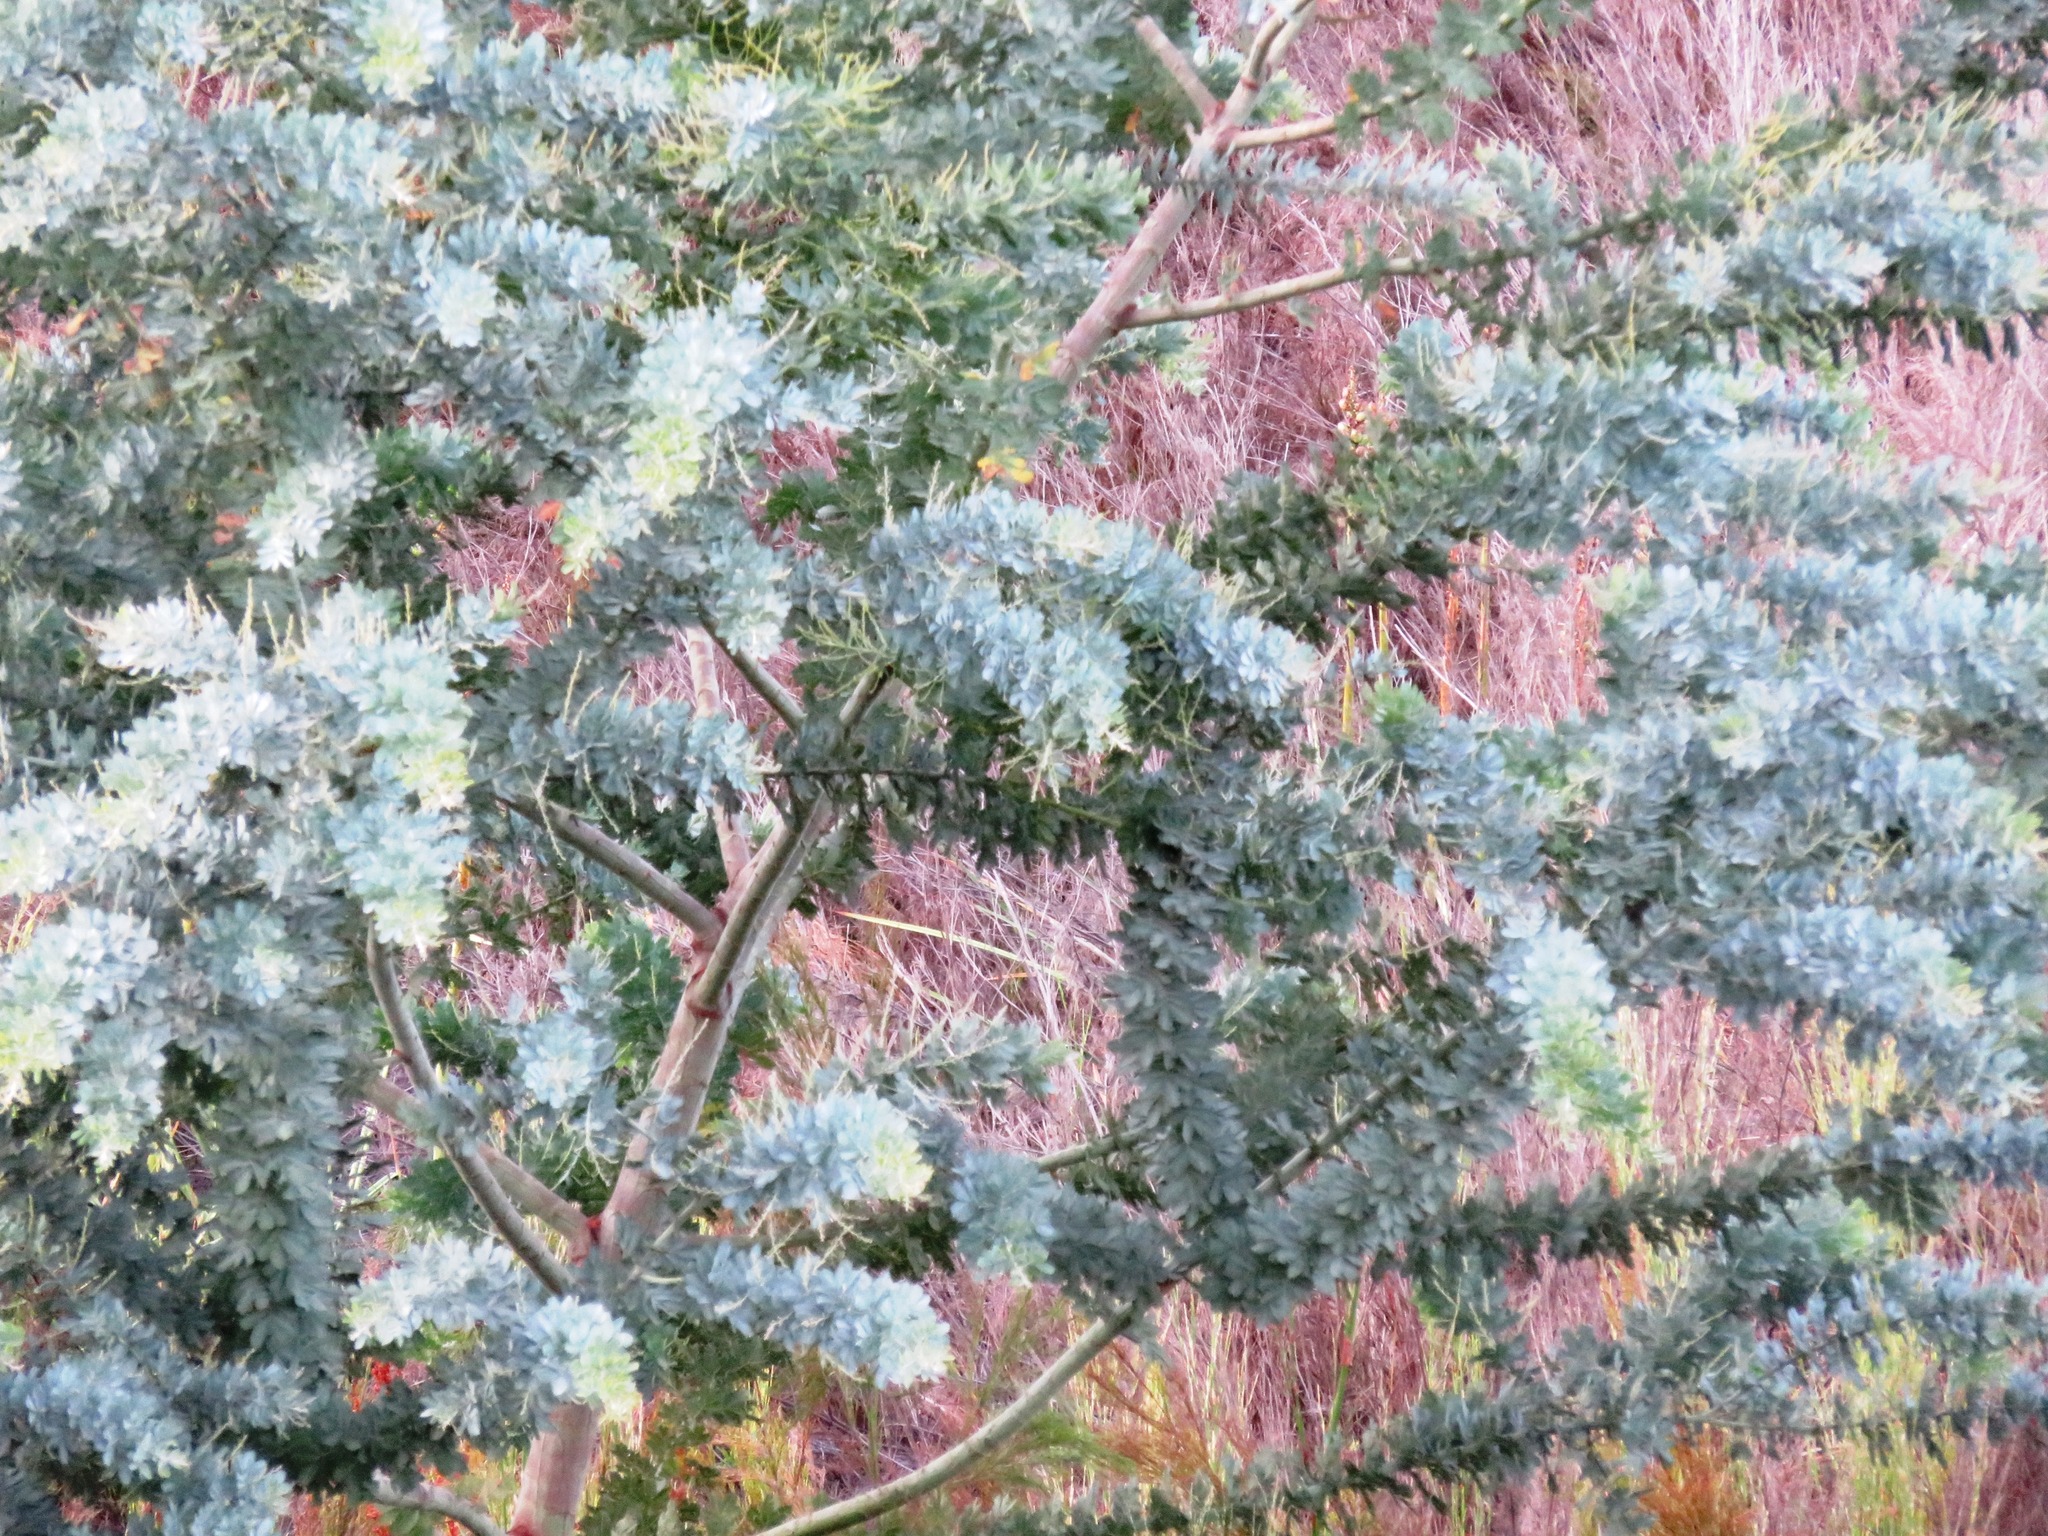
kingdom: Plantae
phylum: Tracheophyta
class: Magnoliopsida
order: Fabales
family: Fabaceae
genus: Acacia
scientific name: Acacia baileyana
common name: Cootamundra wattle
